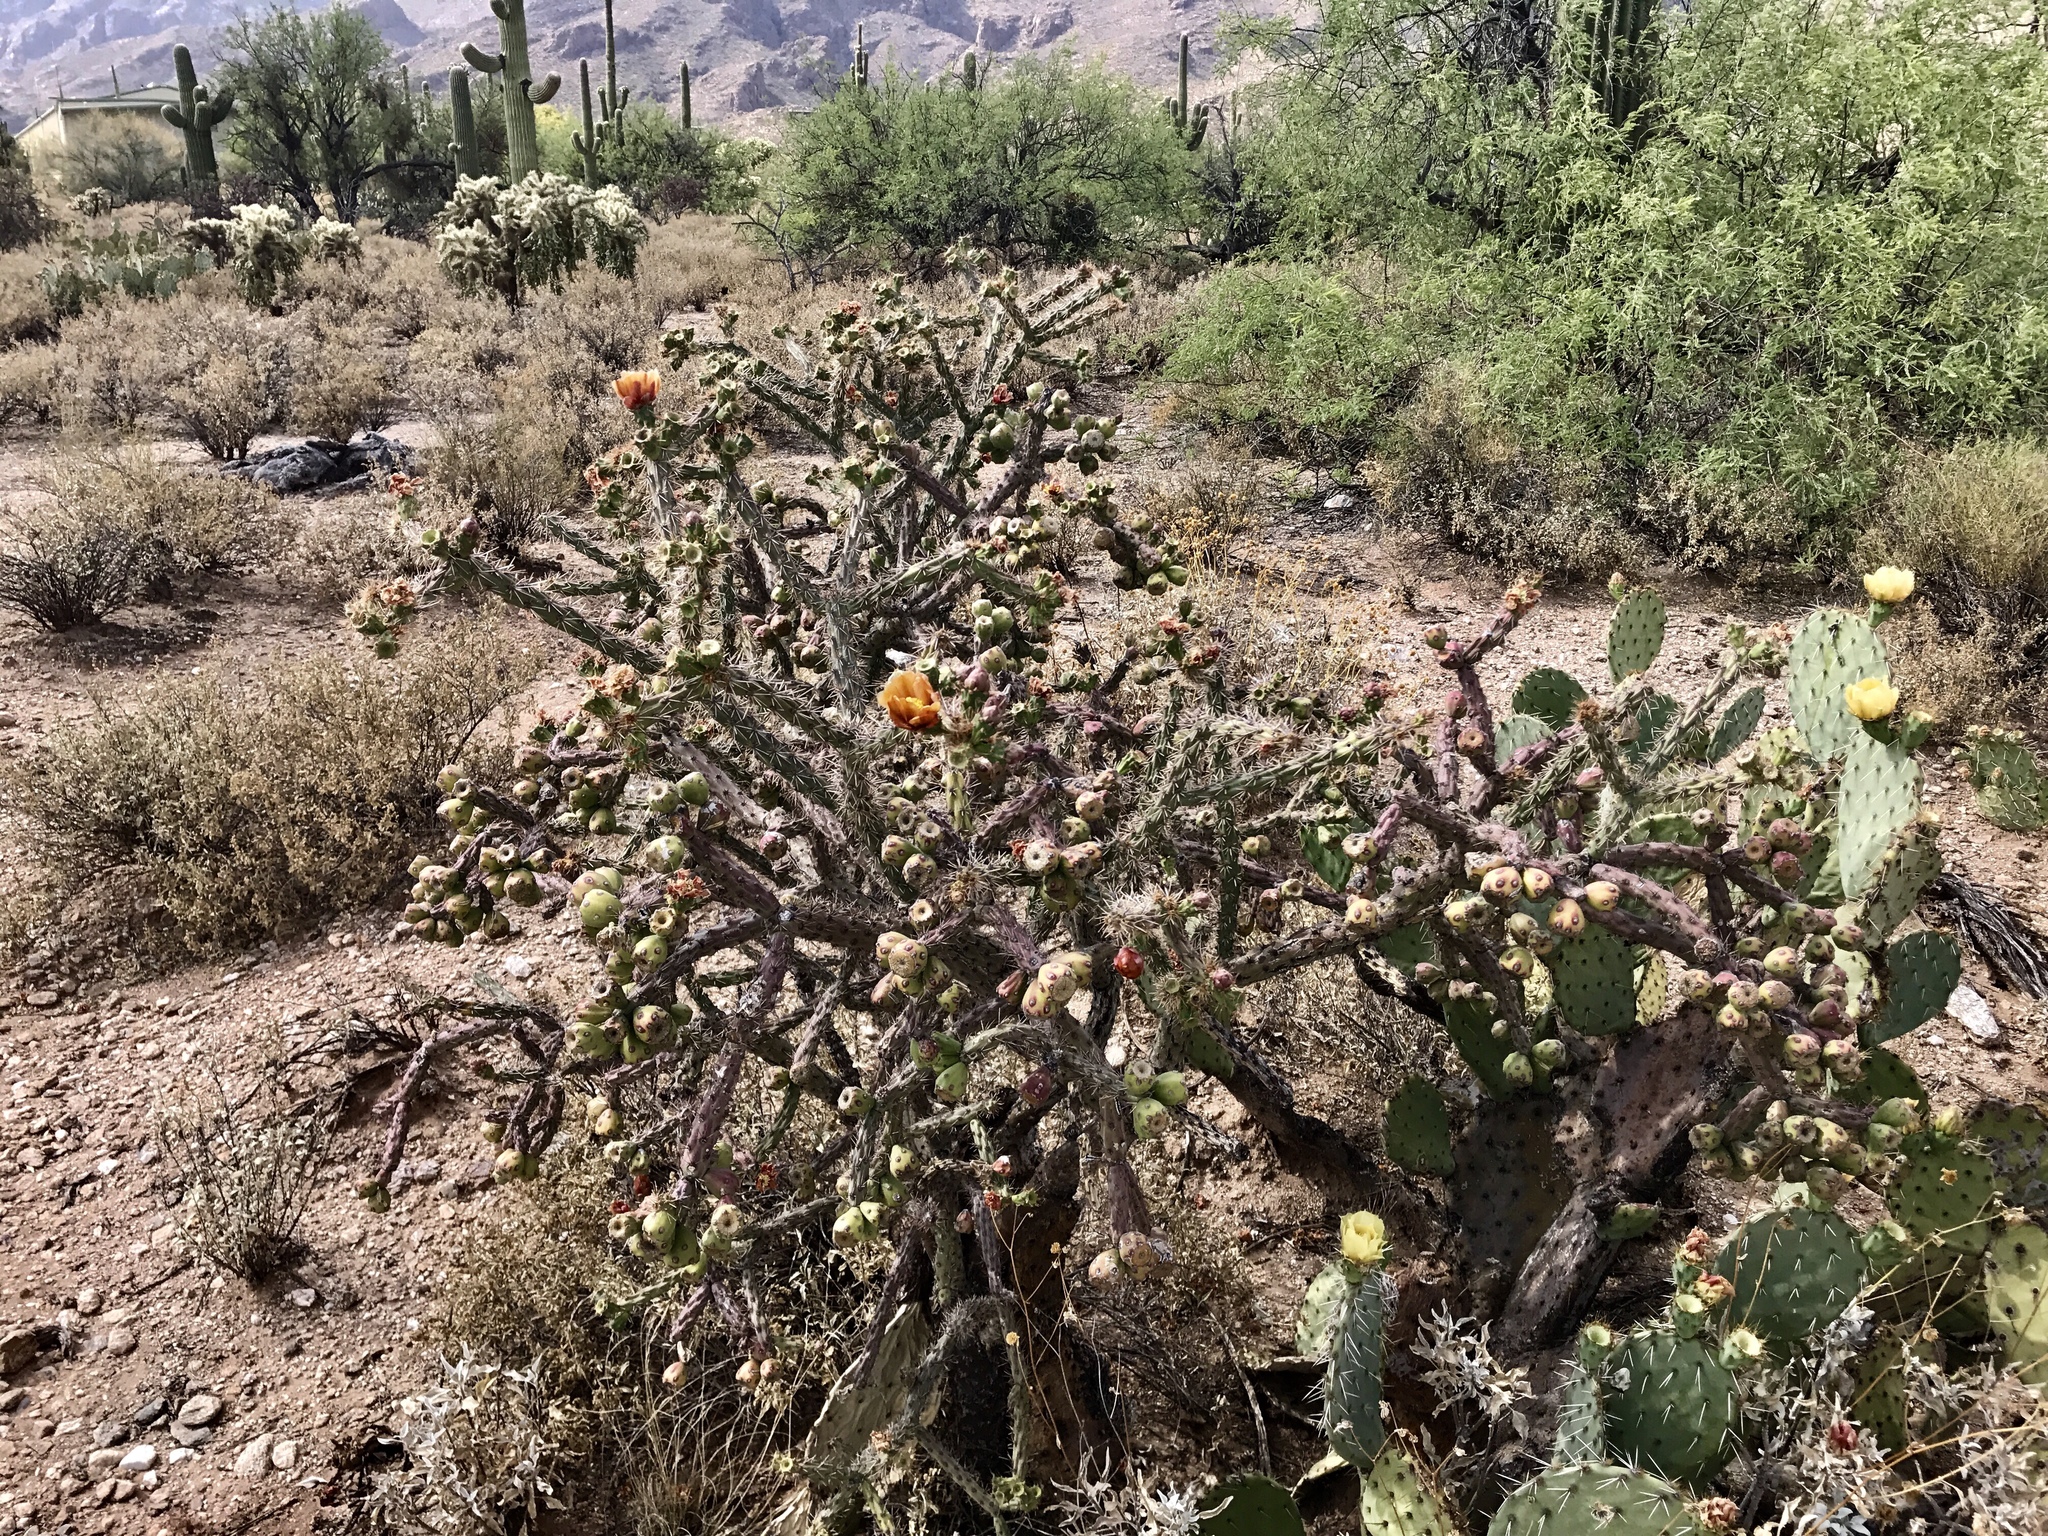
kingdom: Plantae
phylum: Tracheophyta
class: Magnoliopsida
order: Caryophyllales
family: Cactaceae
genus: Cylindropuntia
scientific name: Cylindropuntia thurberi
